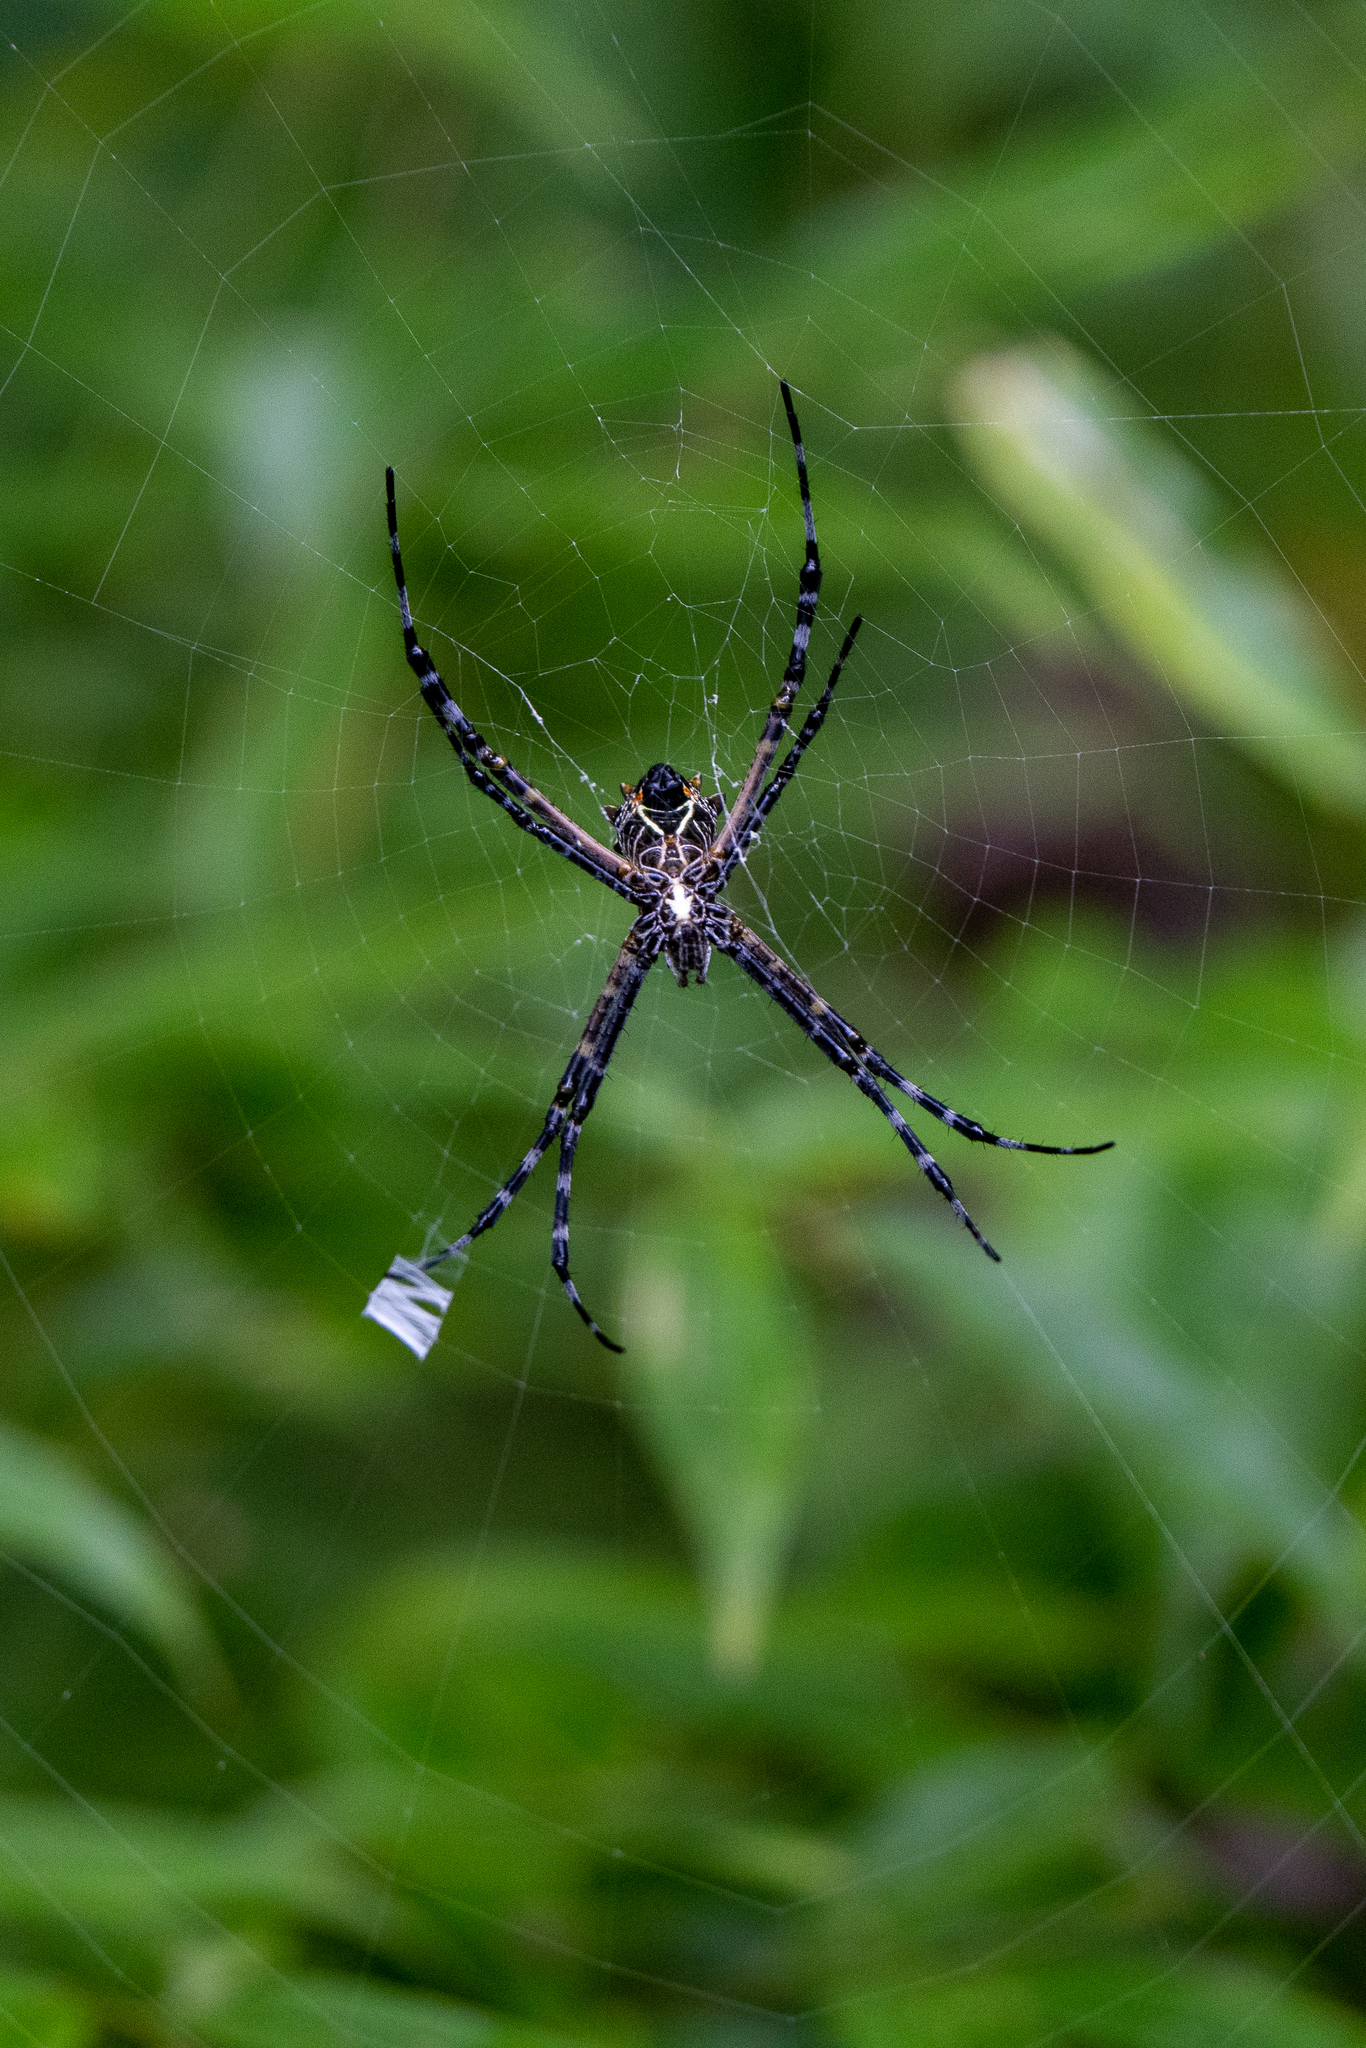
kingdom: Animalia
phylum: Arthropoda
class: Arachnida
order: Araneae
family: Araneidae
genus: Argiope
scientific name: Argiope submaronica
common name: Orb weavers
